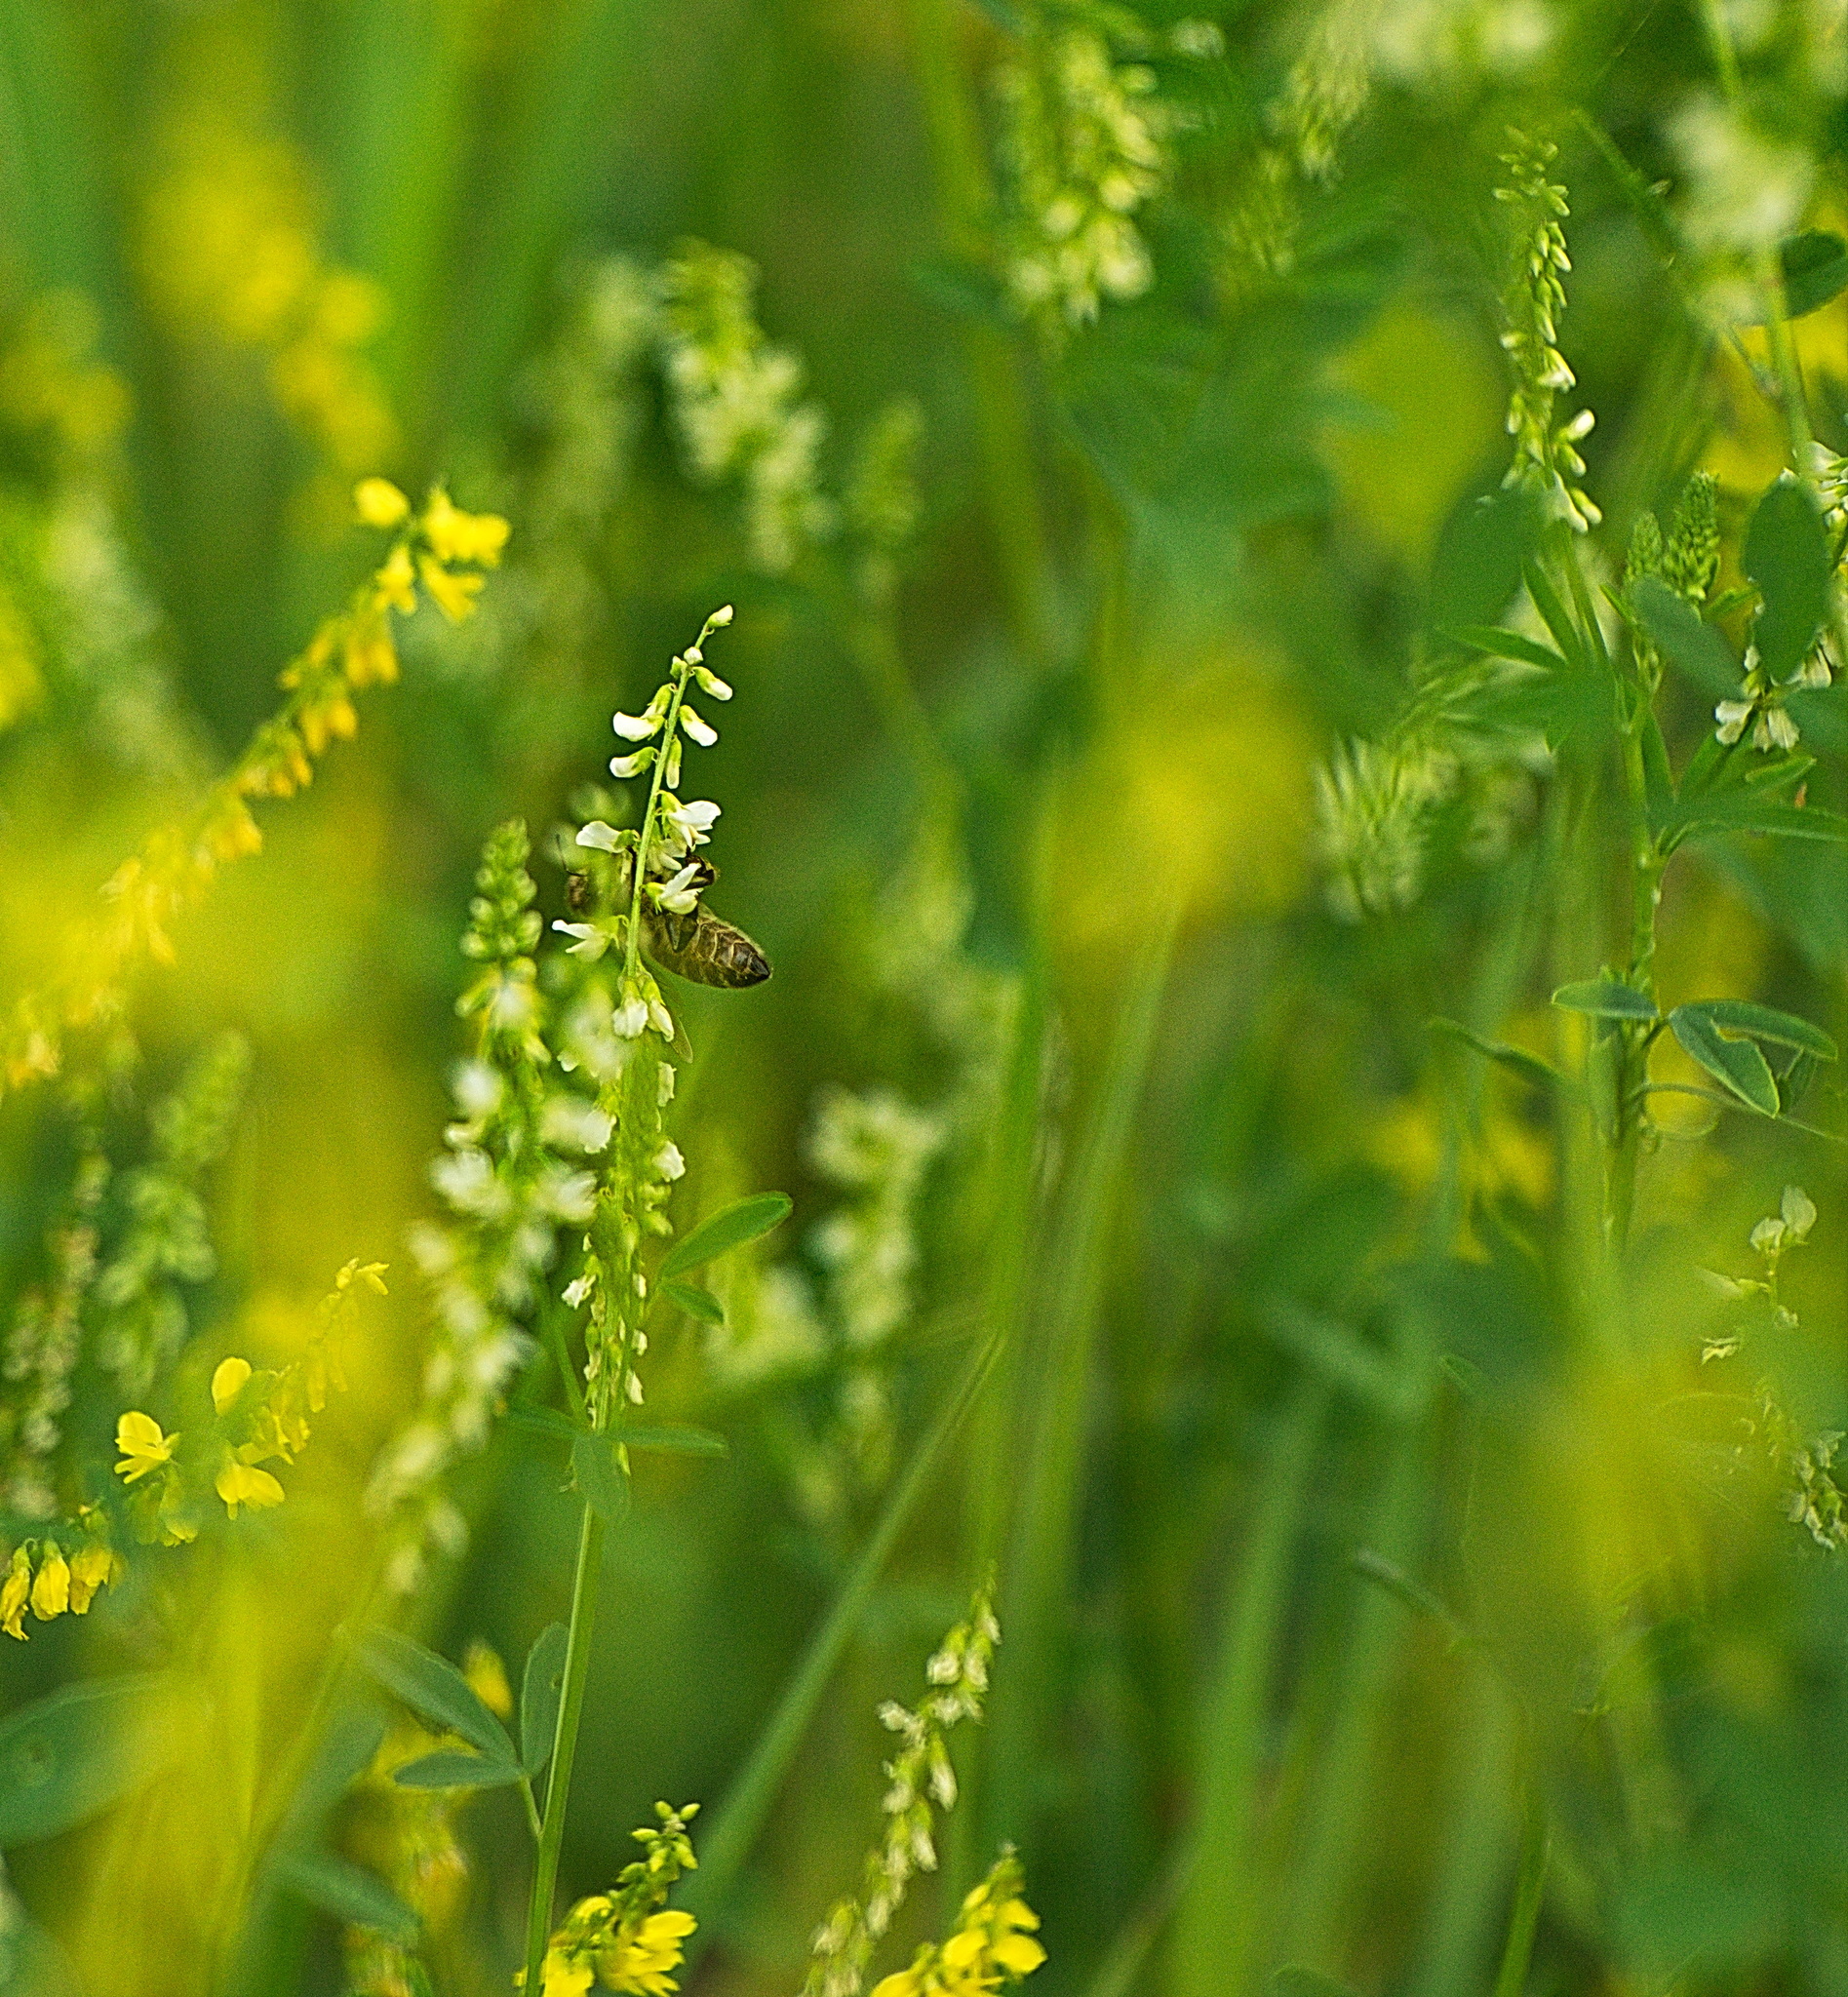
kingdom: Animalia
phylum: Arthropoda
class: Insecta
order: Hymenoptera
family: Apidae
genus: Apis
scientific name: Apis mellifera
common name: Honey bee
